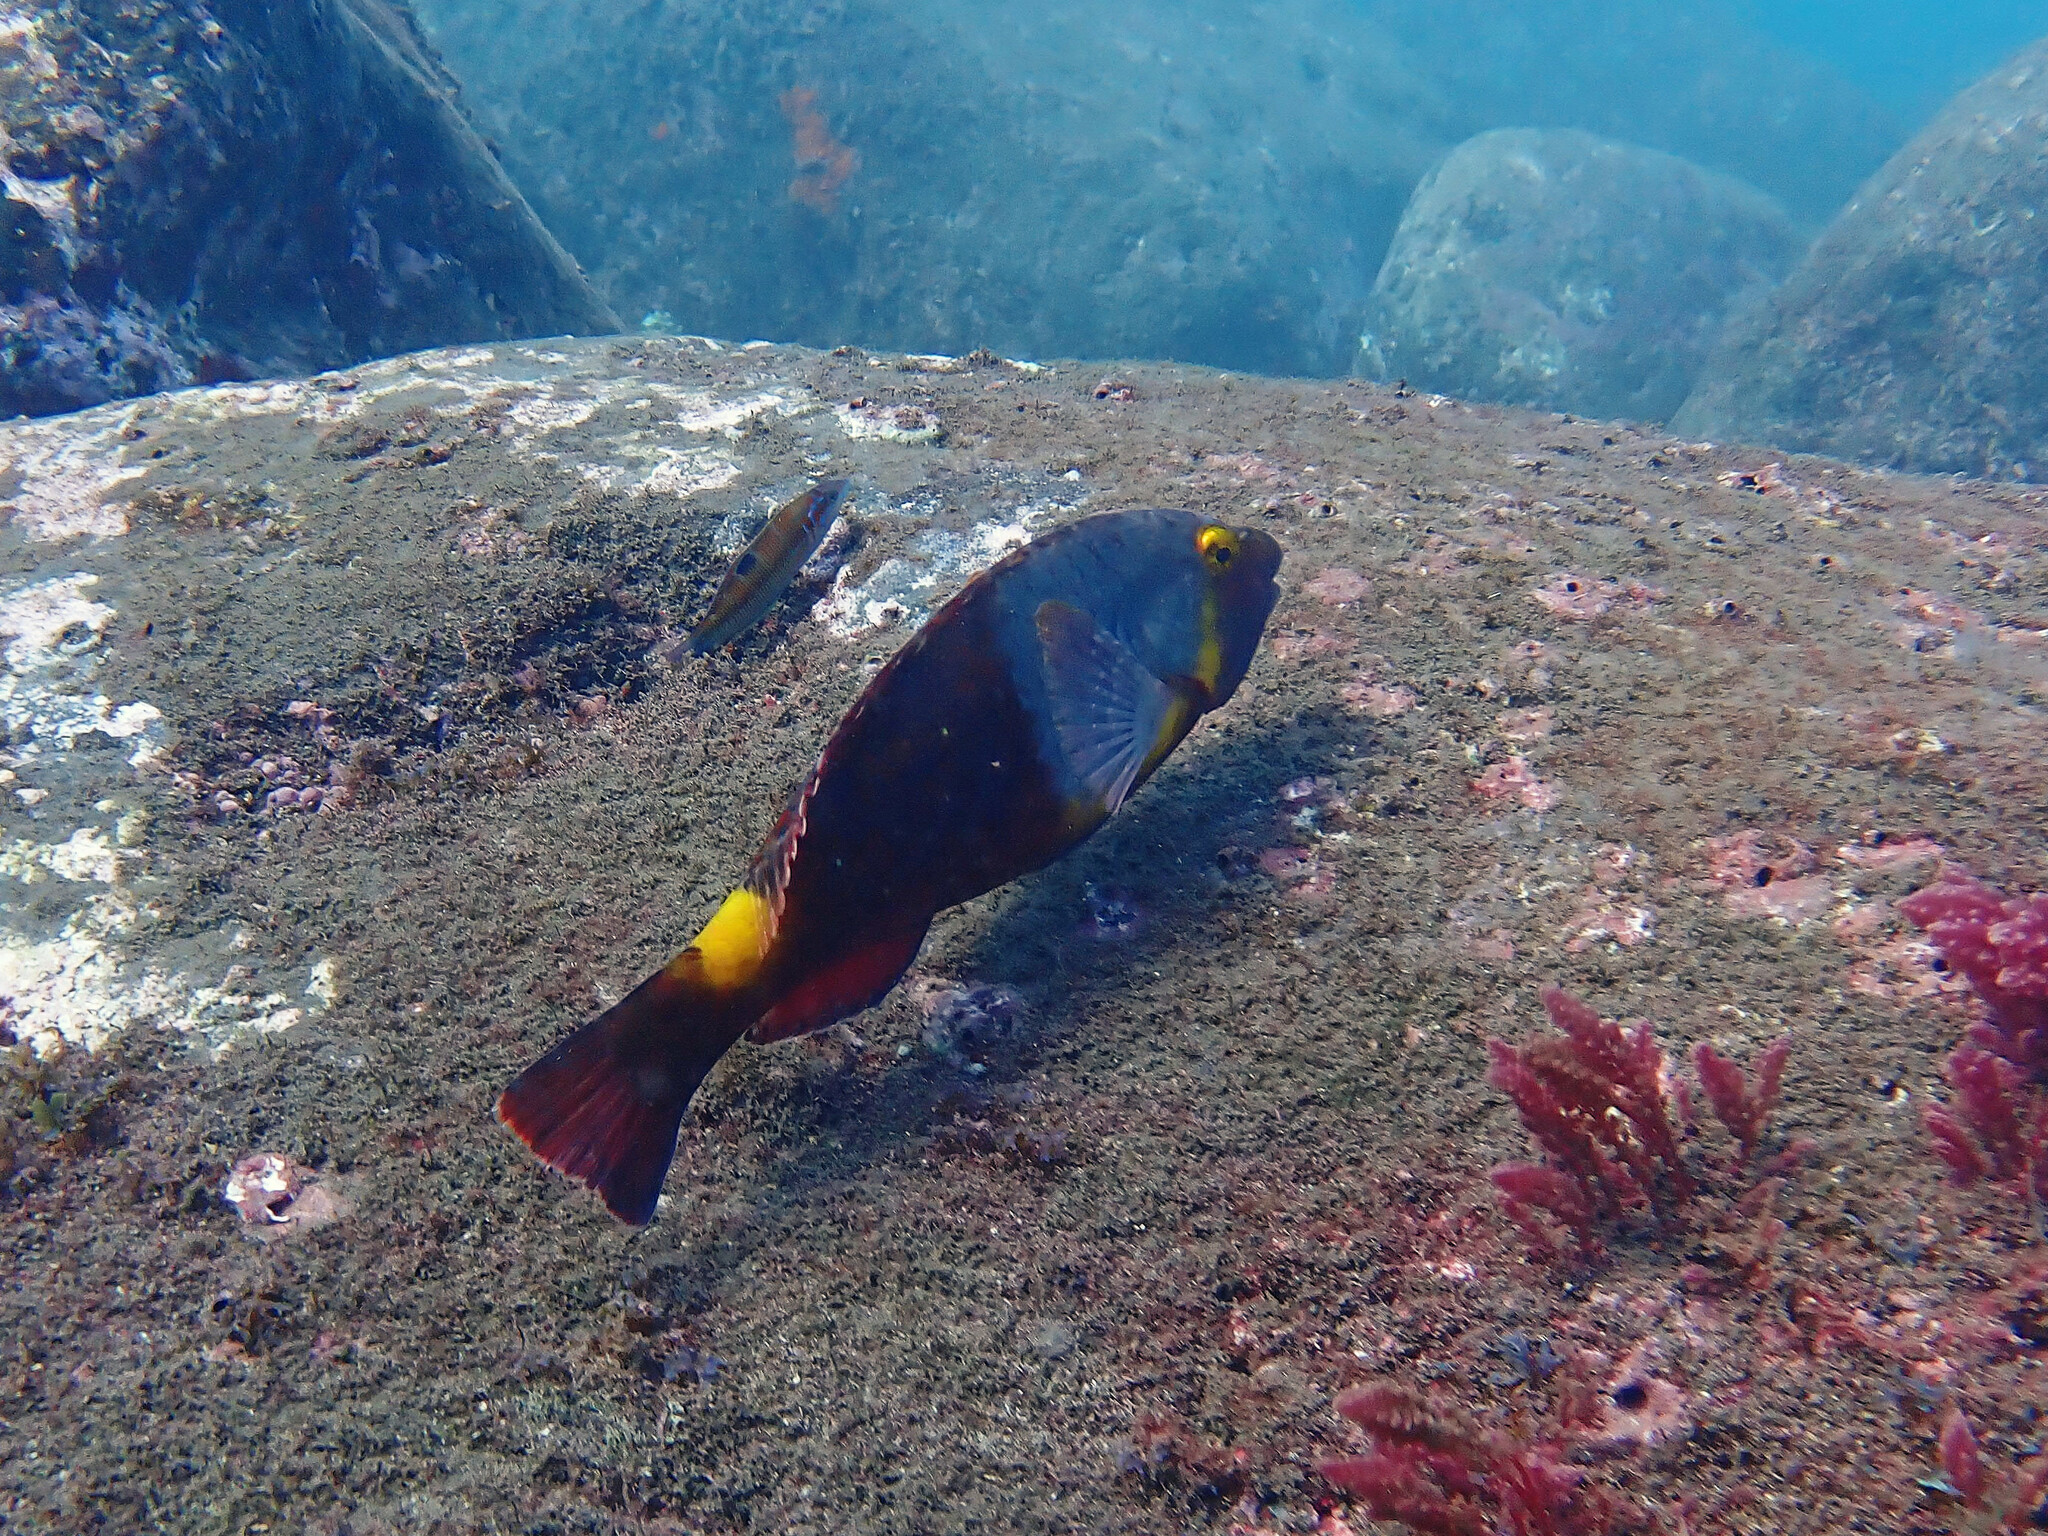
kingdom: Animalia
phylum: Chordata
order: Perciformes
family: Scaridae
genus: Sparisoma
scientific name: Sparisoma cretense
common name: Parrotfish
